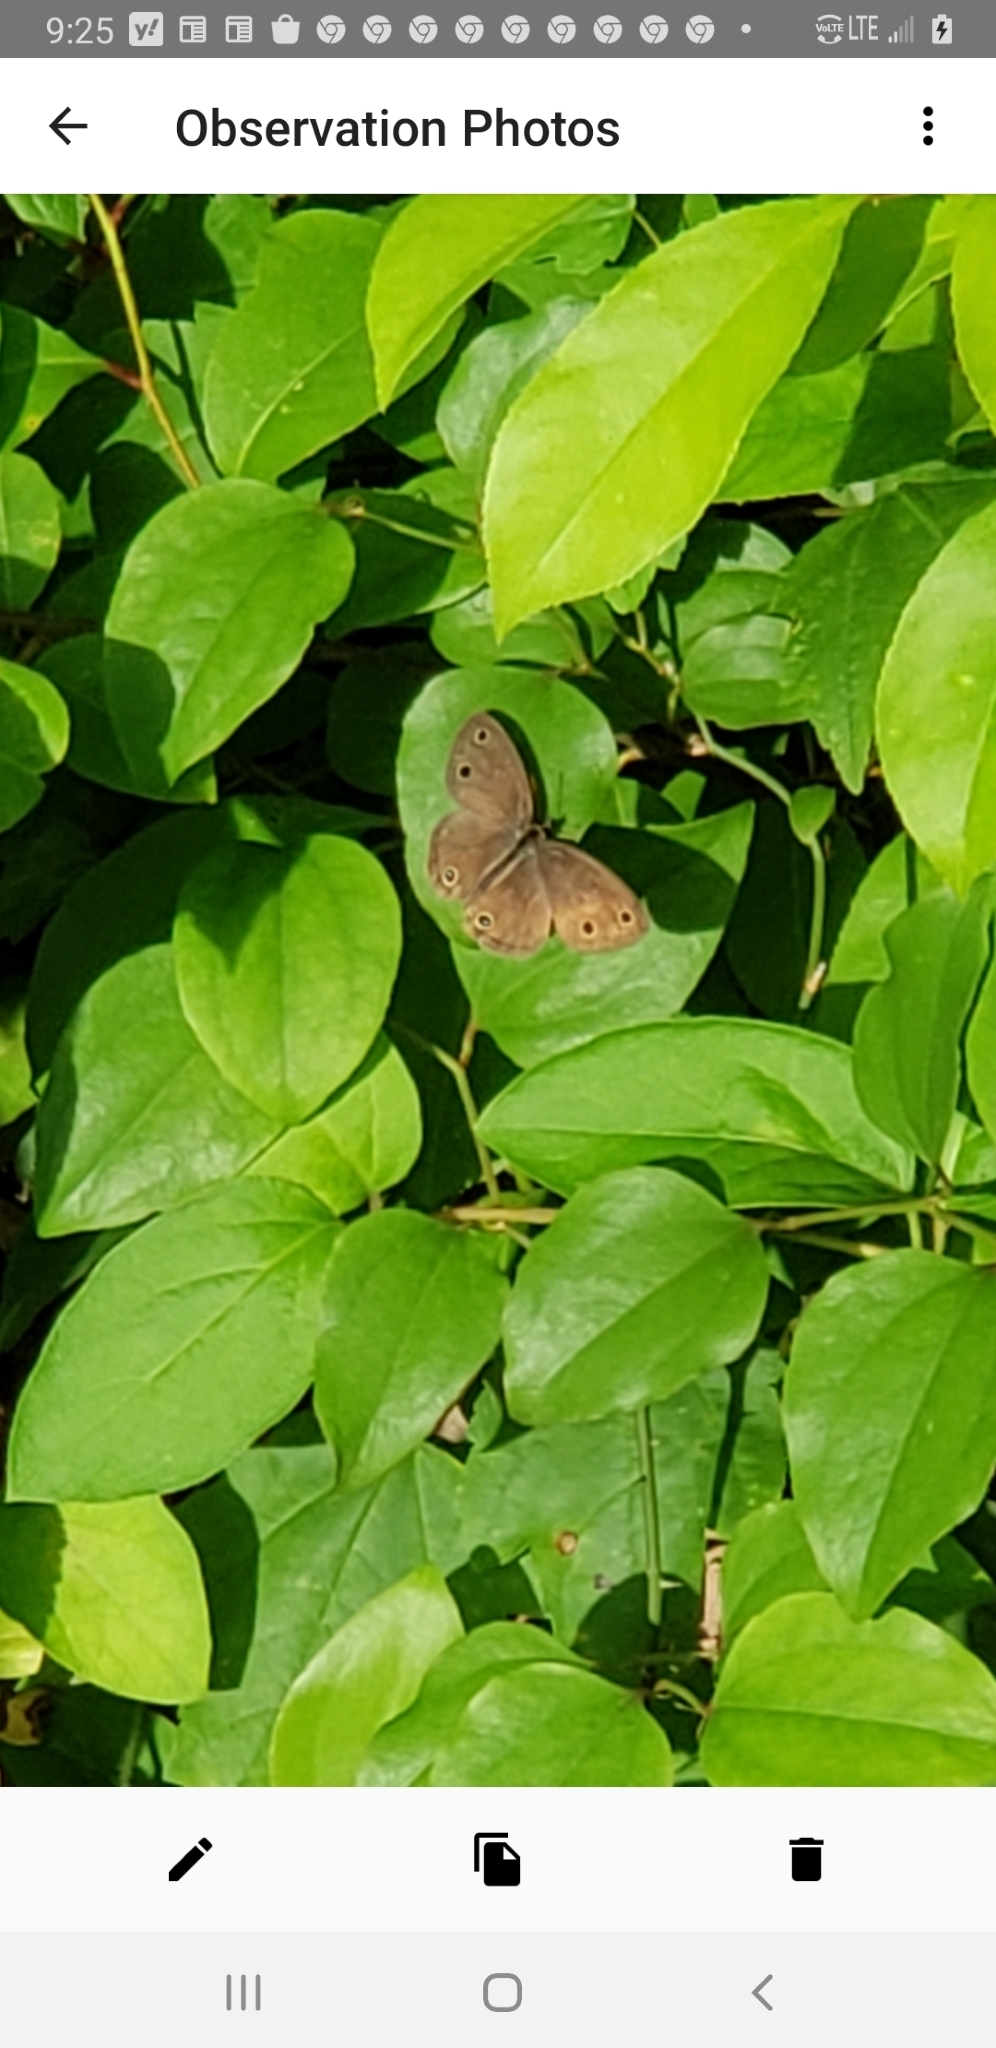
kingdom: Animalia
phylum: Arthropoda
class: Insecta
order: Lepidoptera
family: Nymphalidae
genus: Euptychia
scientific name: Euptychia cymela
